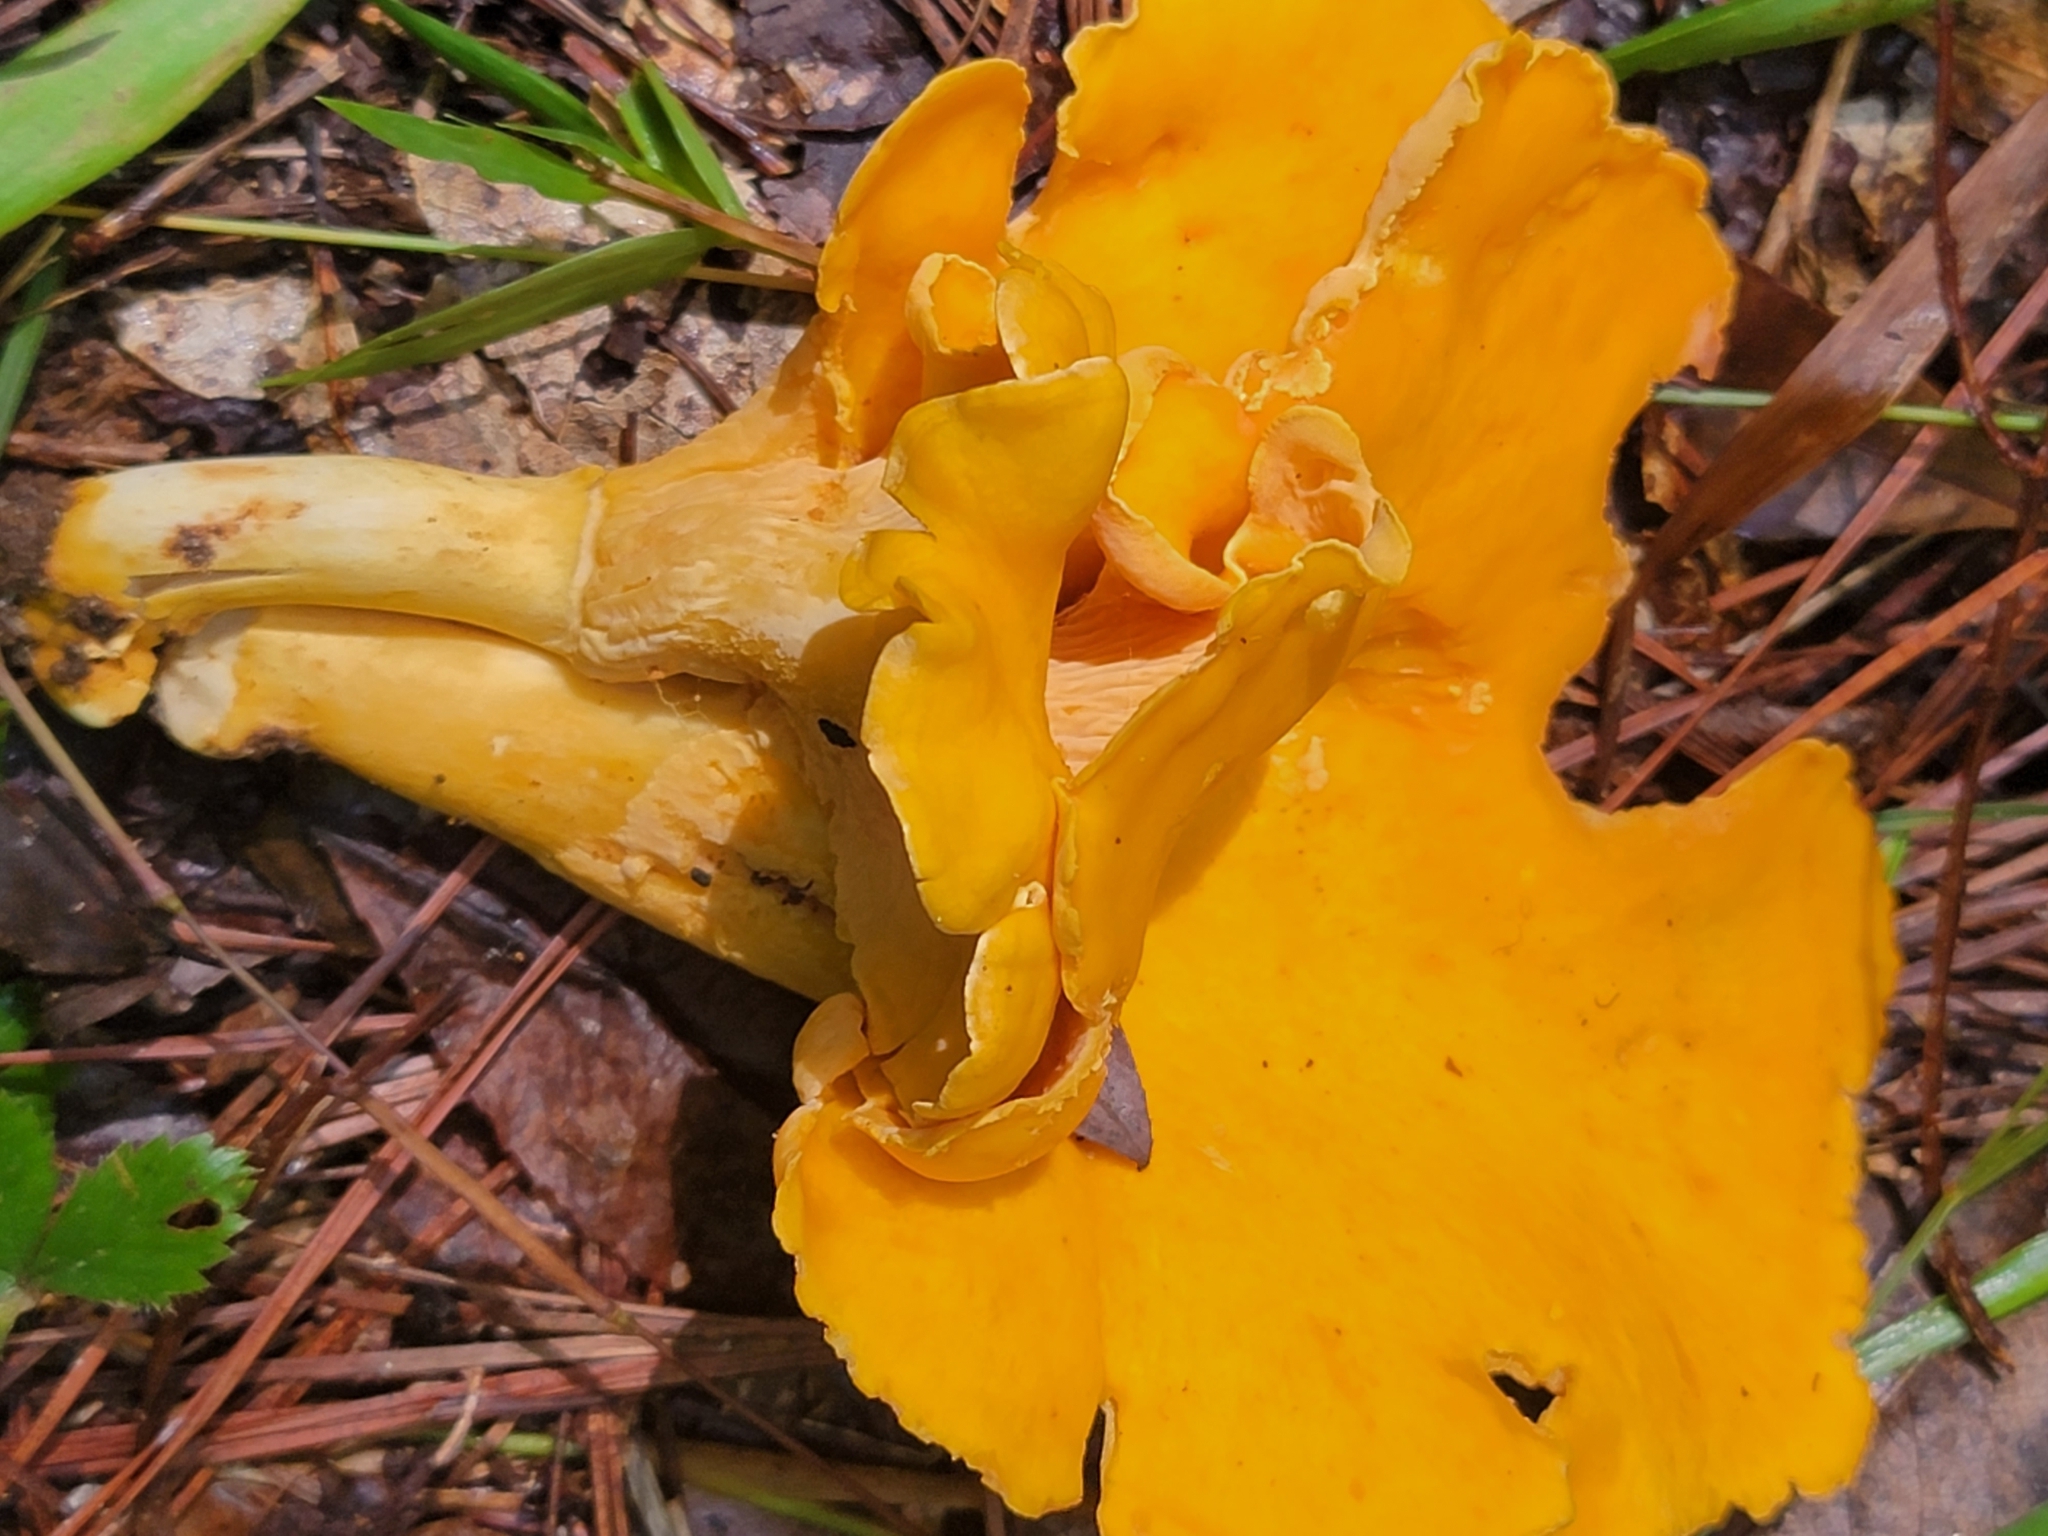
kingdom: Fungi
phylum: Basidiomycota
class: Agaricomycetes
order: Cantharellales
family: Hydnaceae
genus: Cantharellus
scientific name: Cantharellus lateritius
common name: Smooth chanterelle
